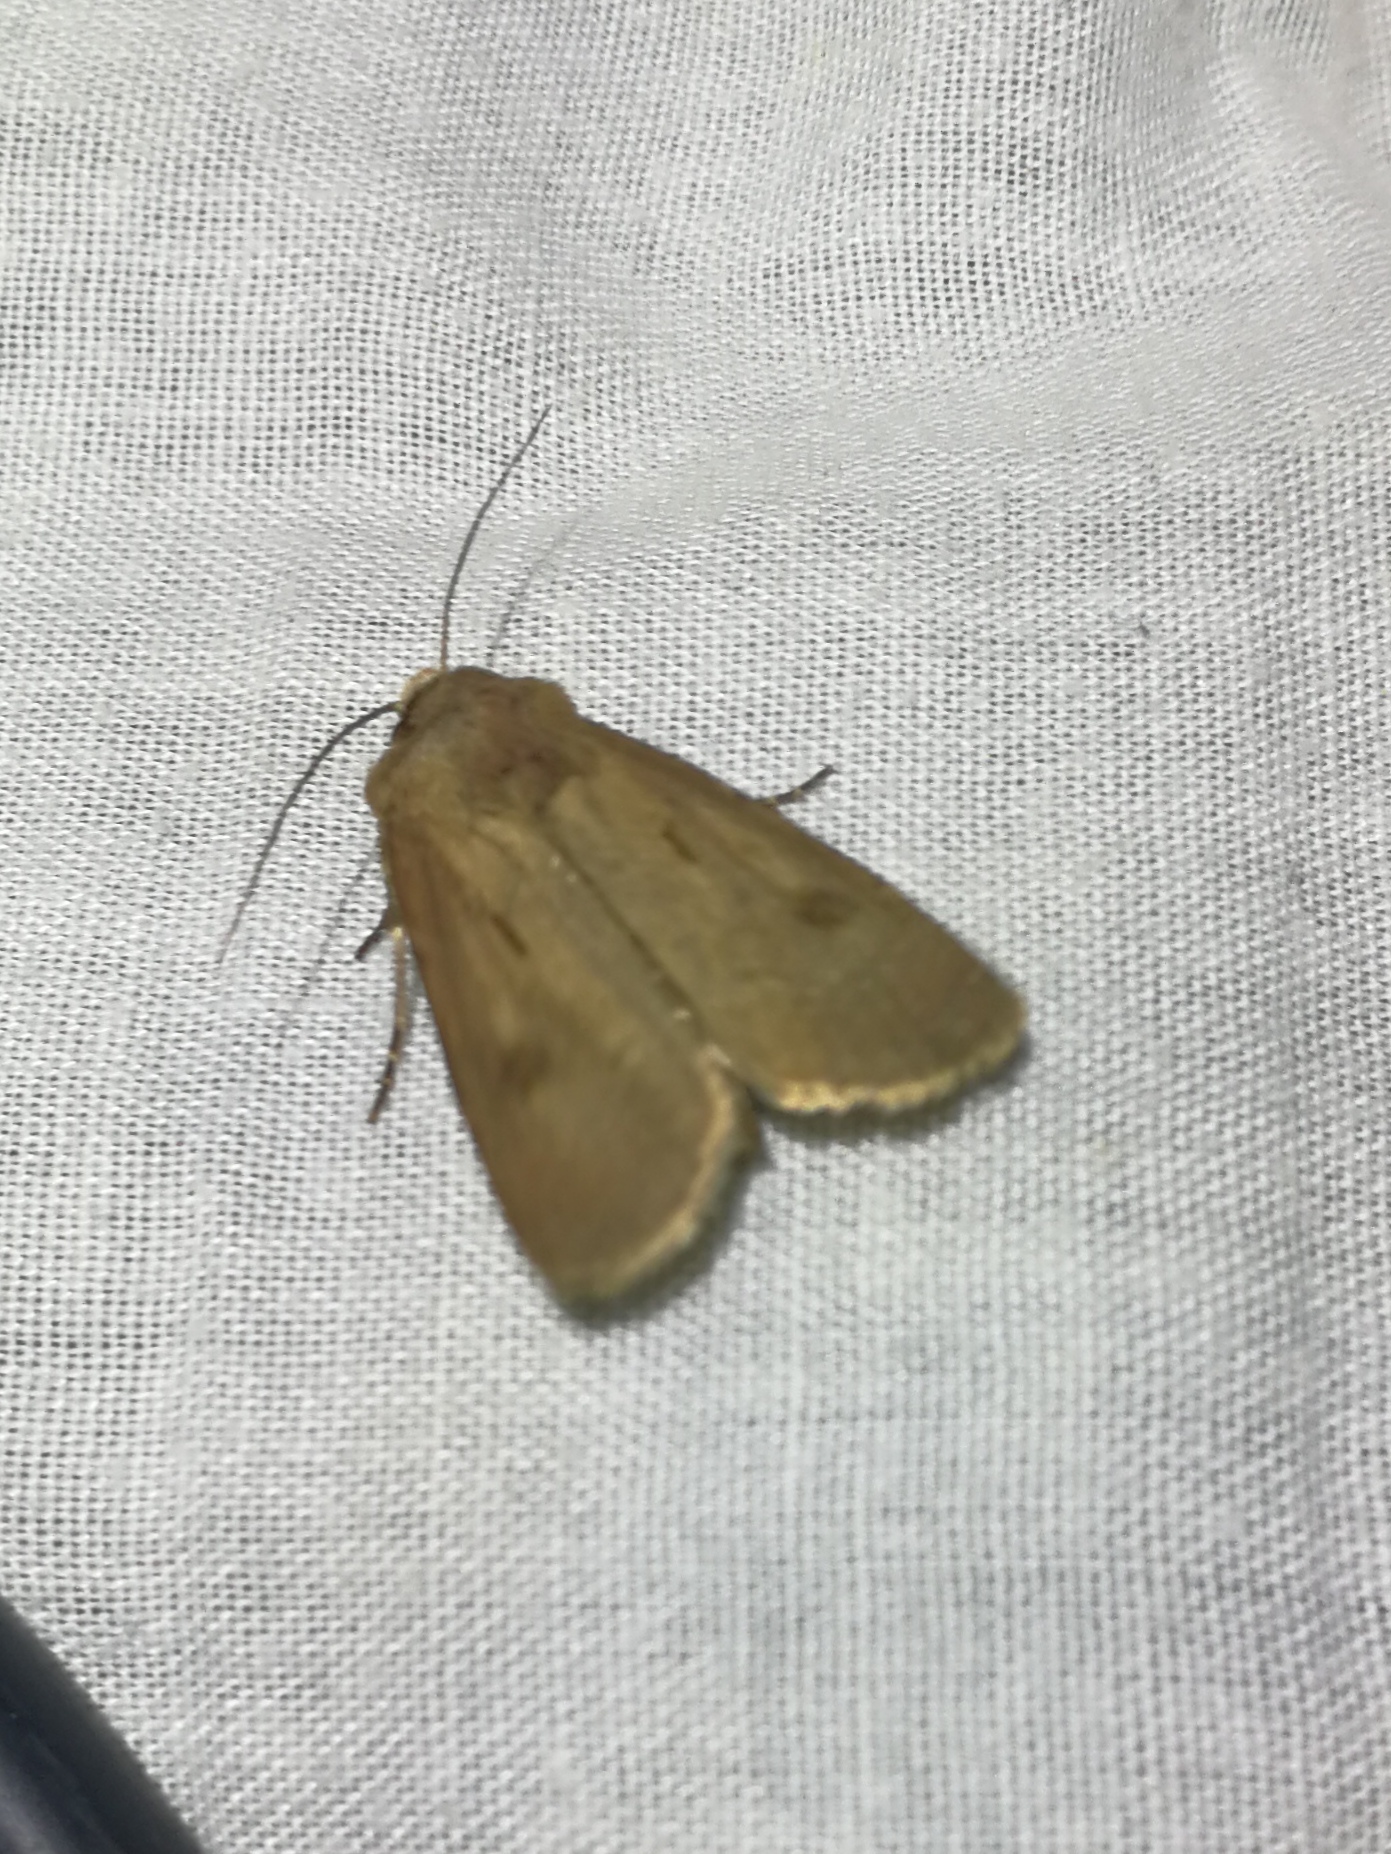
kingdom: Animalia
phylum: Arthropoda
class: Insecta
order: Lepidoptera
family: Noctuidae
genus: Agrotis
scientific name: Agrotis exclamationis
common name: Heart and dart
